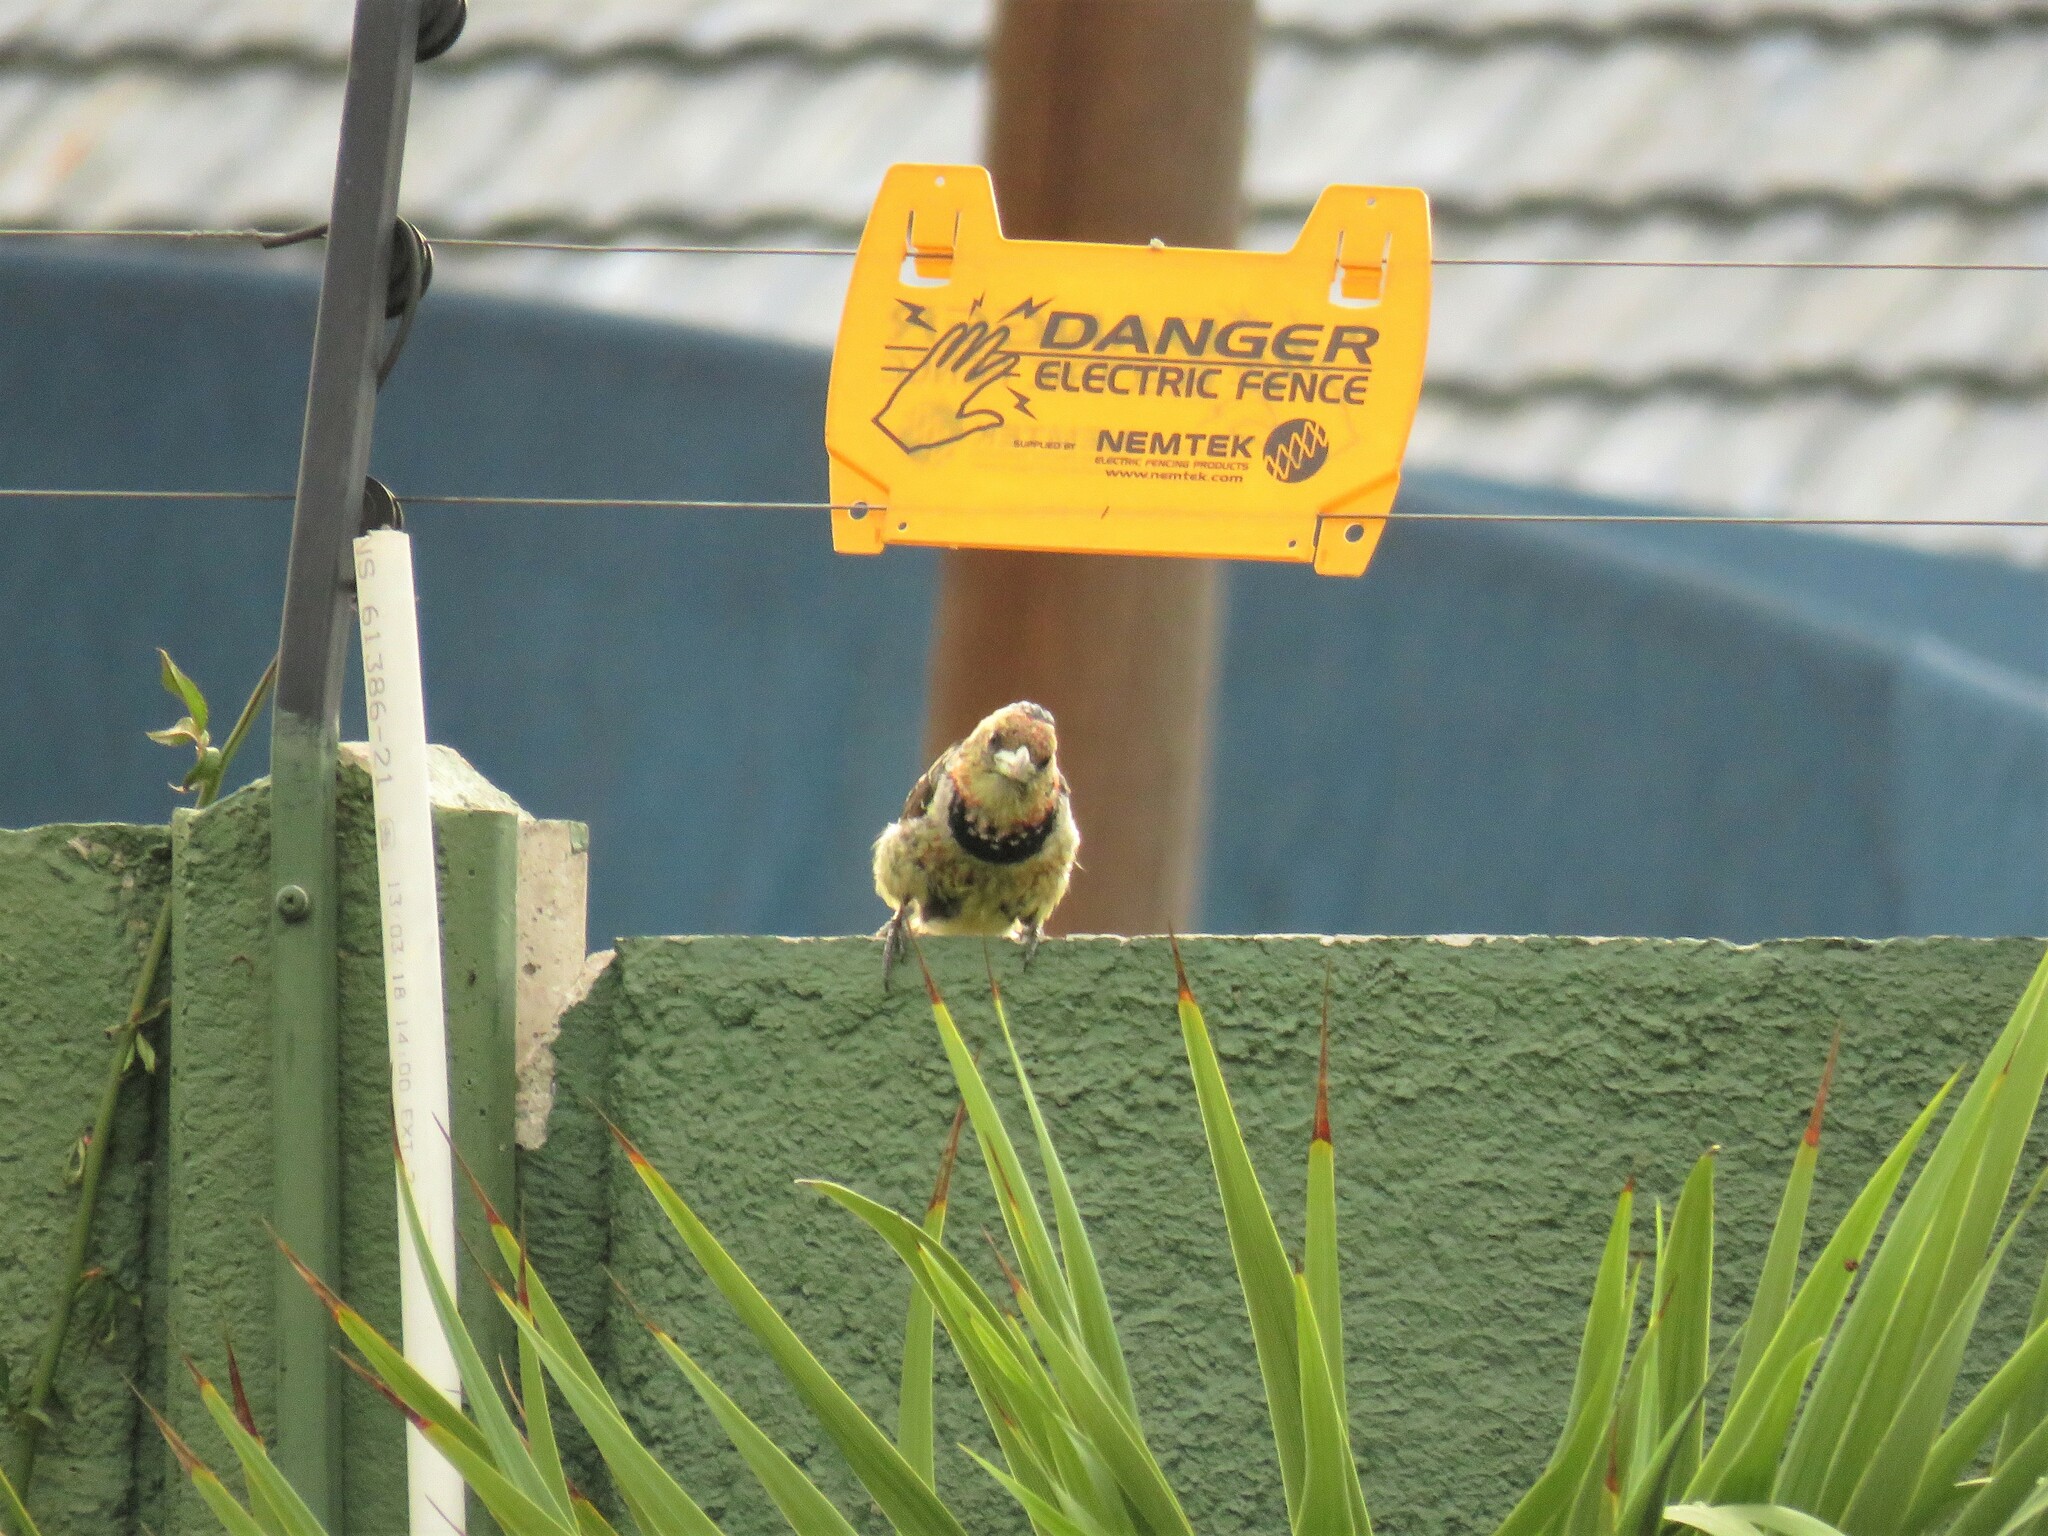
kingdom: Animalia
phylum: Chordata
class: Aves
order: Piciformes
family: Lybiidae
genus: Trachyphonus
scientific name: Trachyphonus vaillantii
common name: Crested barbet
